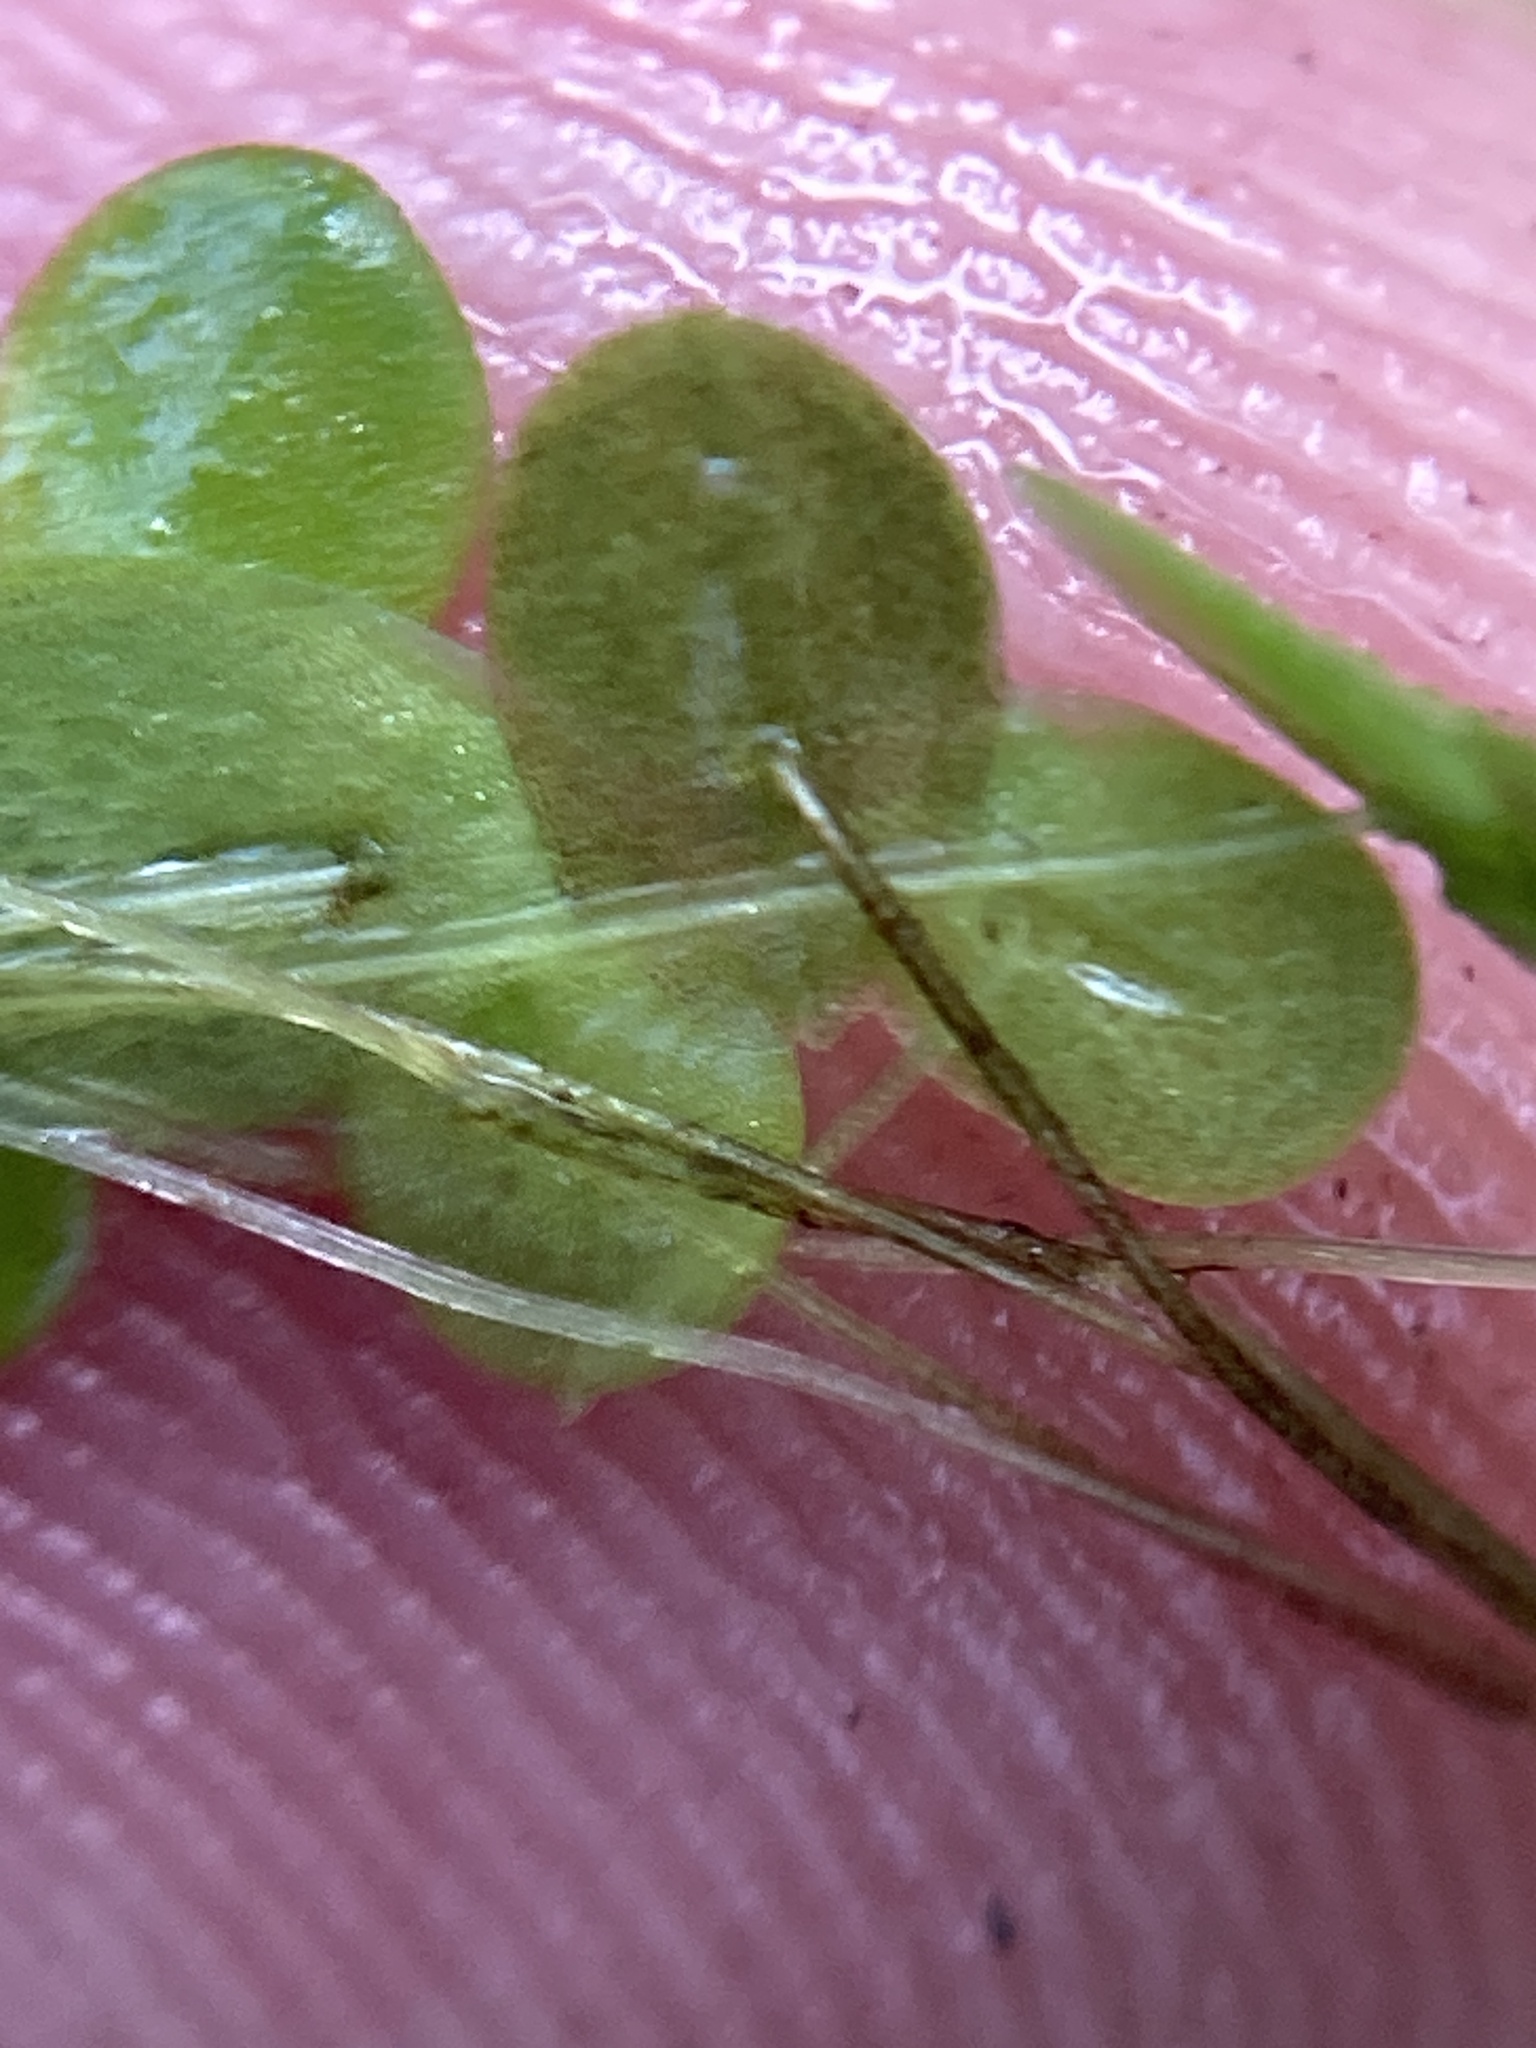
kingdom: Plantae
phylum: Tracheophyta
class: Liliopsida
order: Alismatales
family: Araceae
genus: Lemna
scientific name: Lemna turionifera
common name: Perennial duckweed
